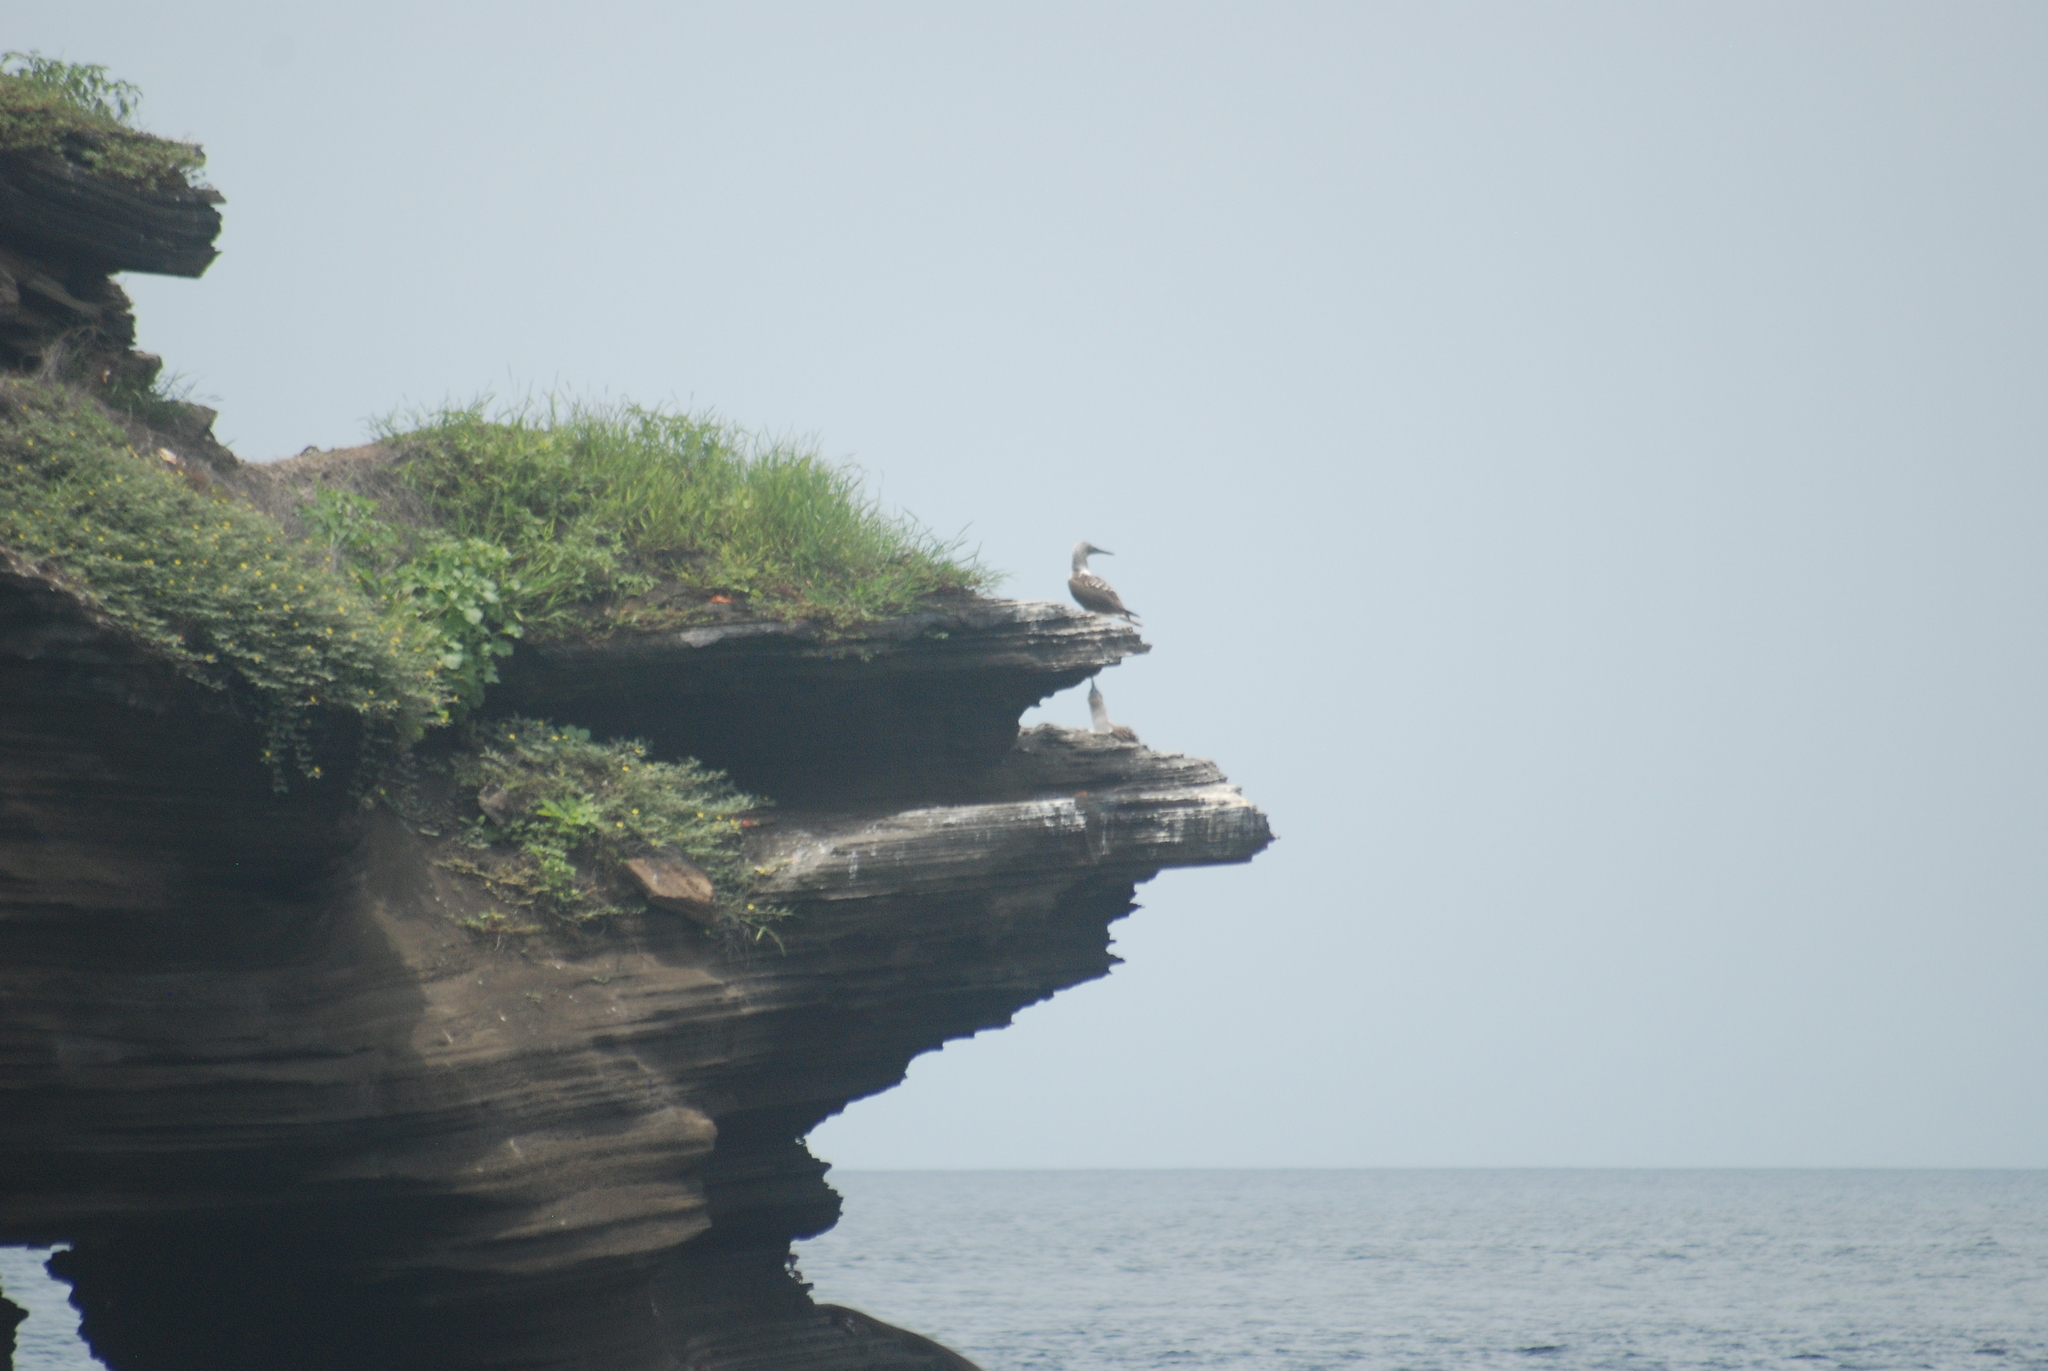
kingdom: Animalia
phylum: Chordata
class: Aves
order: Suliformes
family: Sulidae
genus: Sula
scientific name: Sula nebouxii
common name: Blue-footed booby
